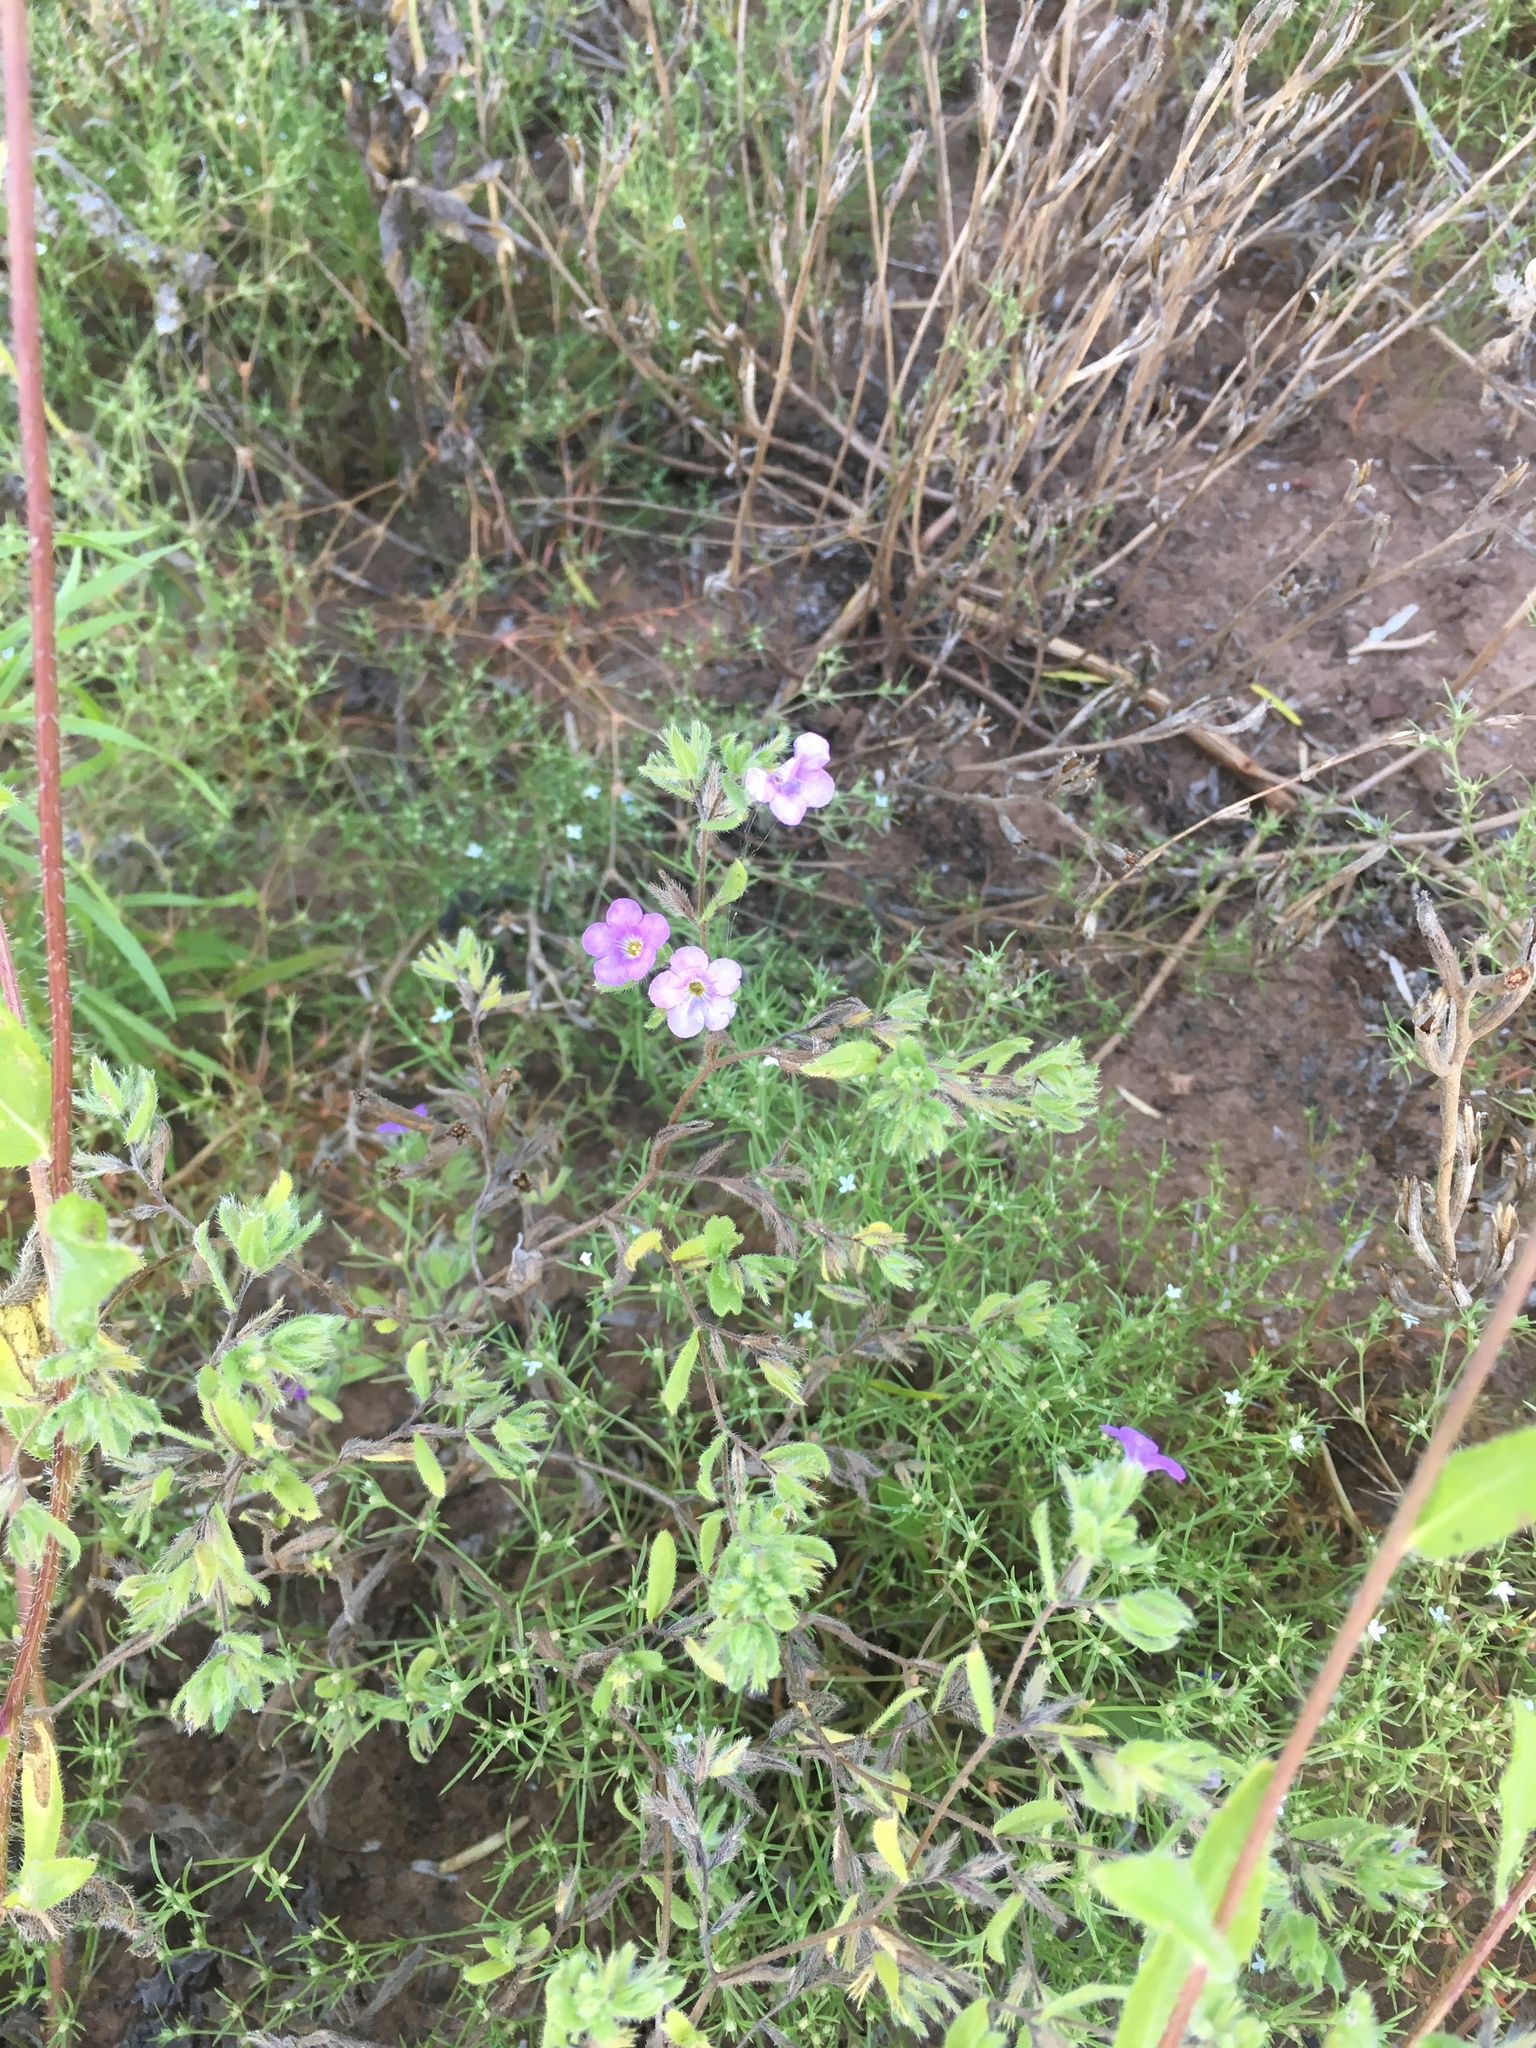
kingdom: Plantae
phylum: Tracheophyta
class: Magnoliopsida
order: Boraginales
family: Namaceae
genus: Nama
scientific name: Nama hispida
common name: Bristly nama
